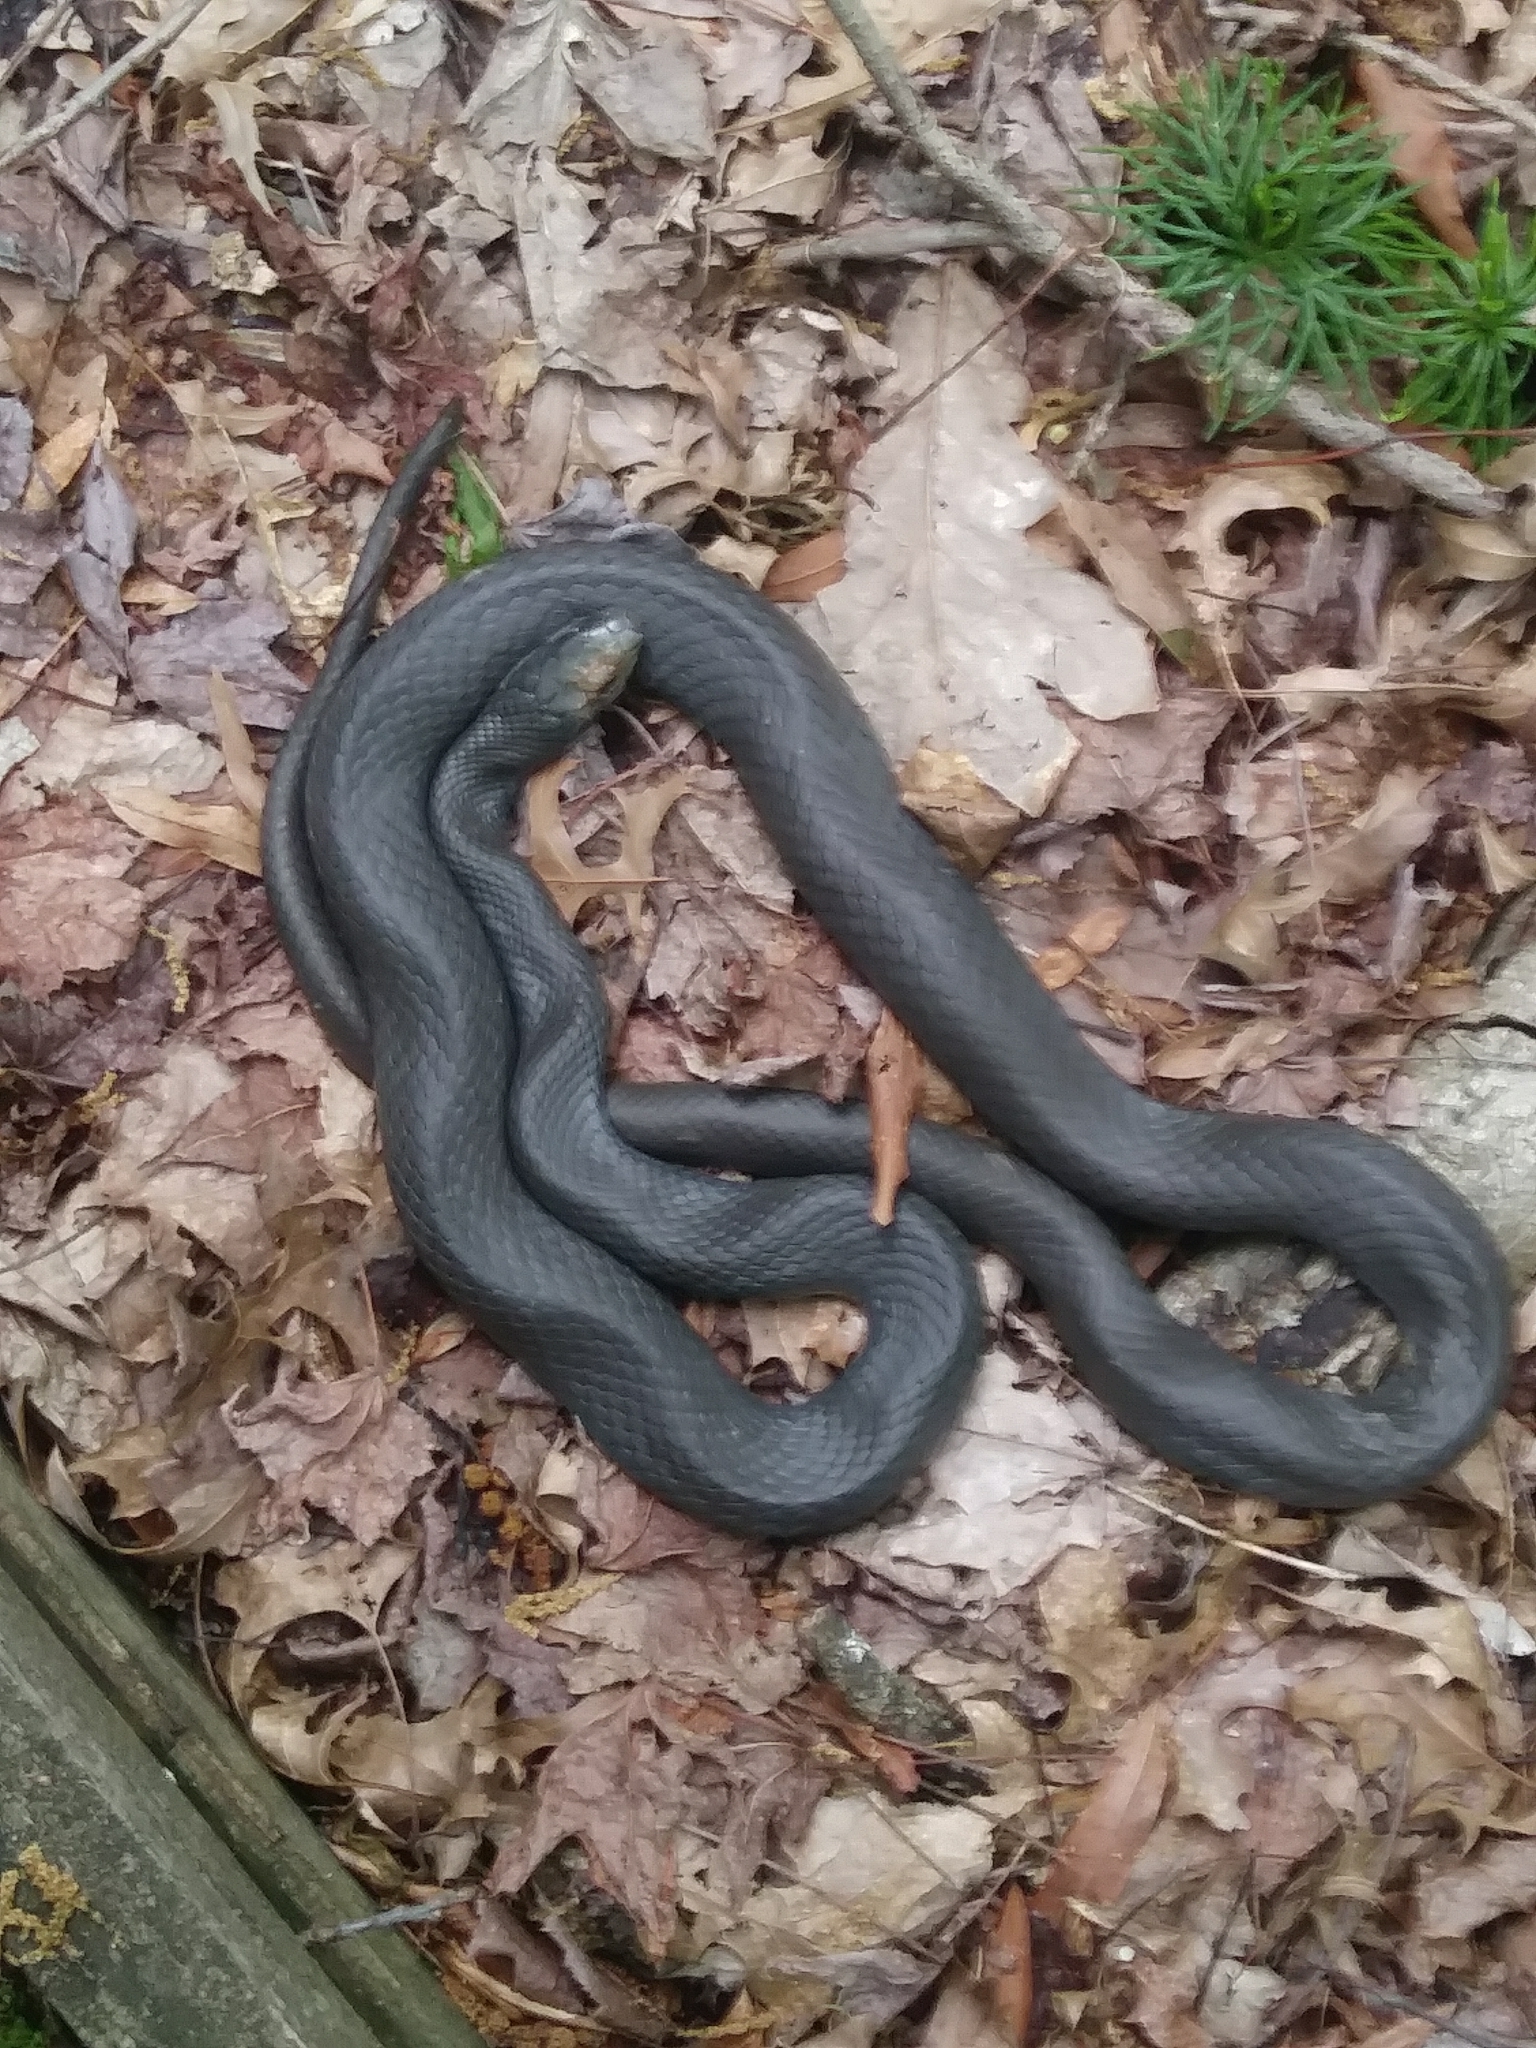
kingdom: Animalia
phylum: Chordata
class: Squamata
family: Colubridae
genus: Coluber
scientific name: Coluber constrictor
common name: Eastern racer
